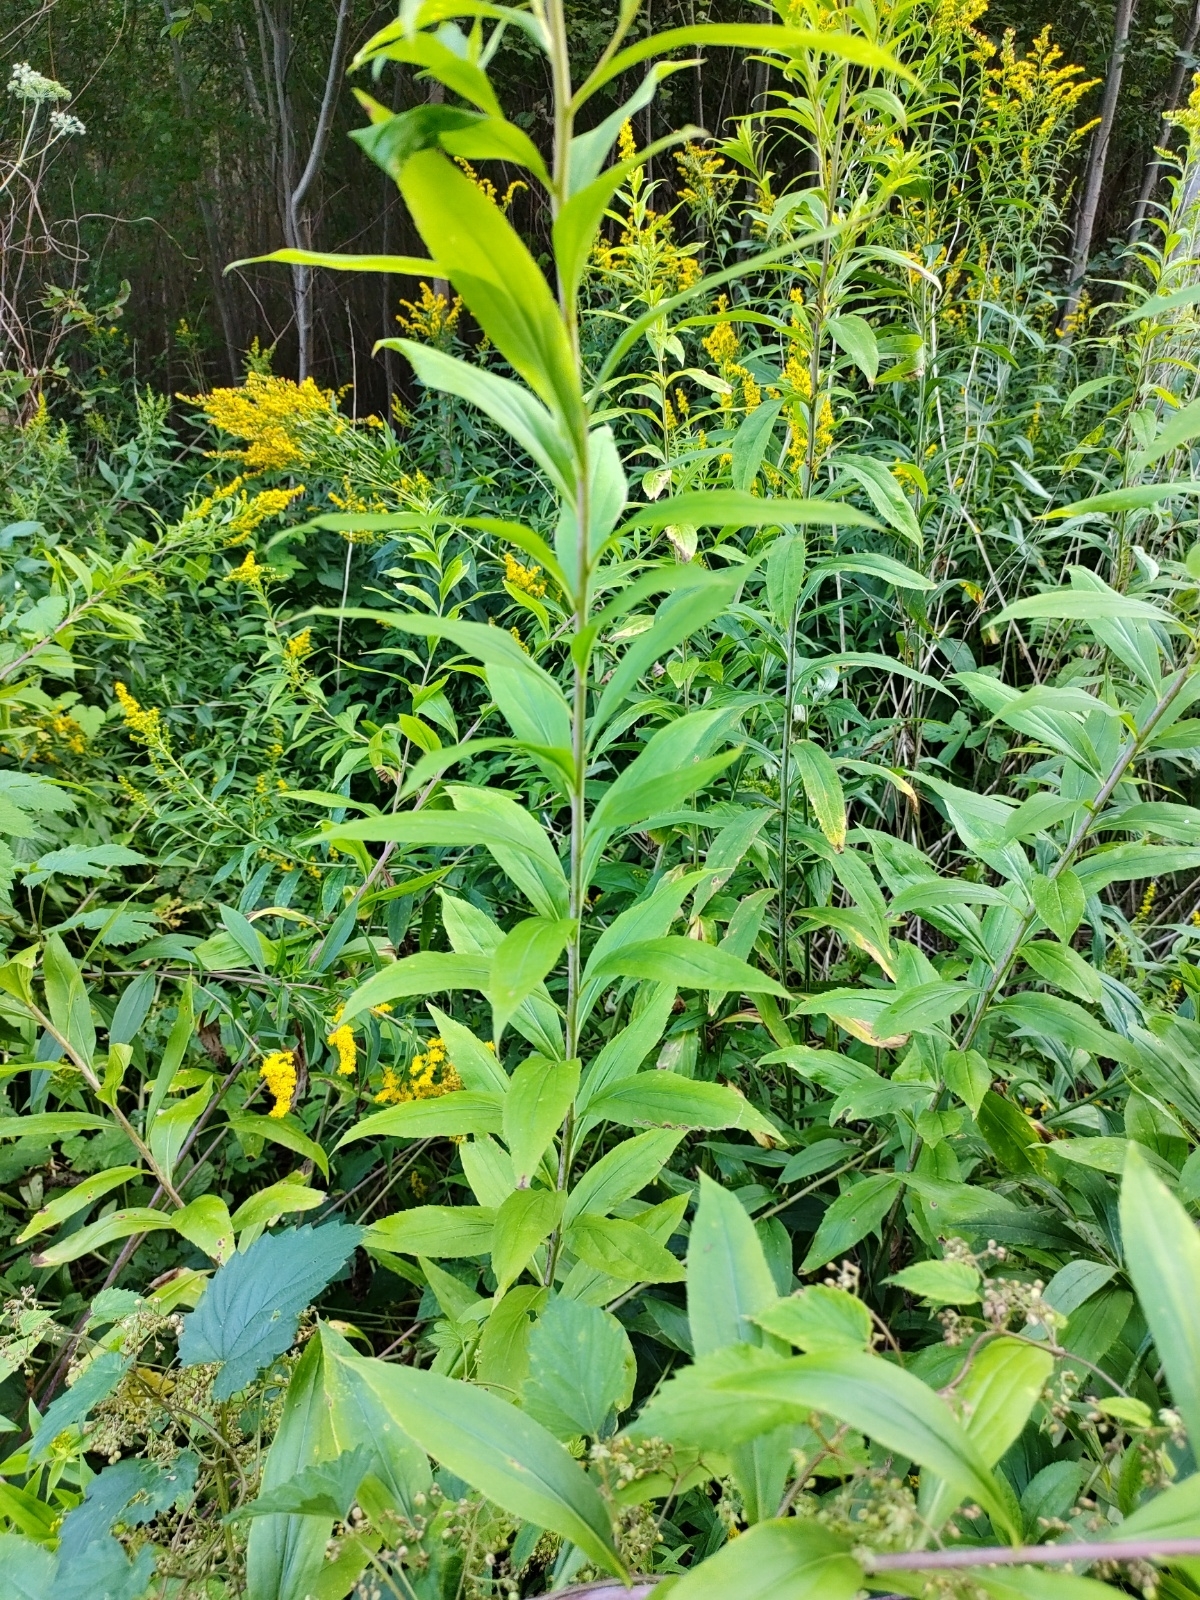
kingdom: Plantae
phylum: Tracheophyta
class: Magnoliopsida
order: Asterales
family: Asteraceae
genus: Solidago
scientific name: Solidago gigantea
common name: Giant goldenrod
